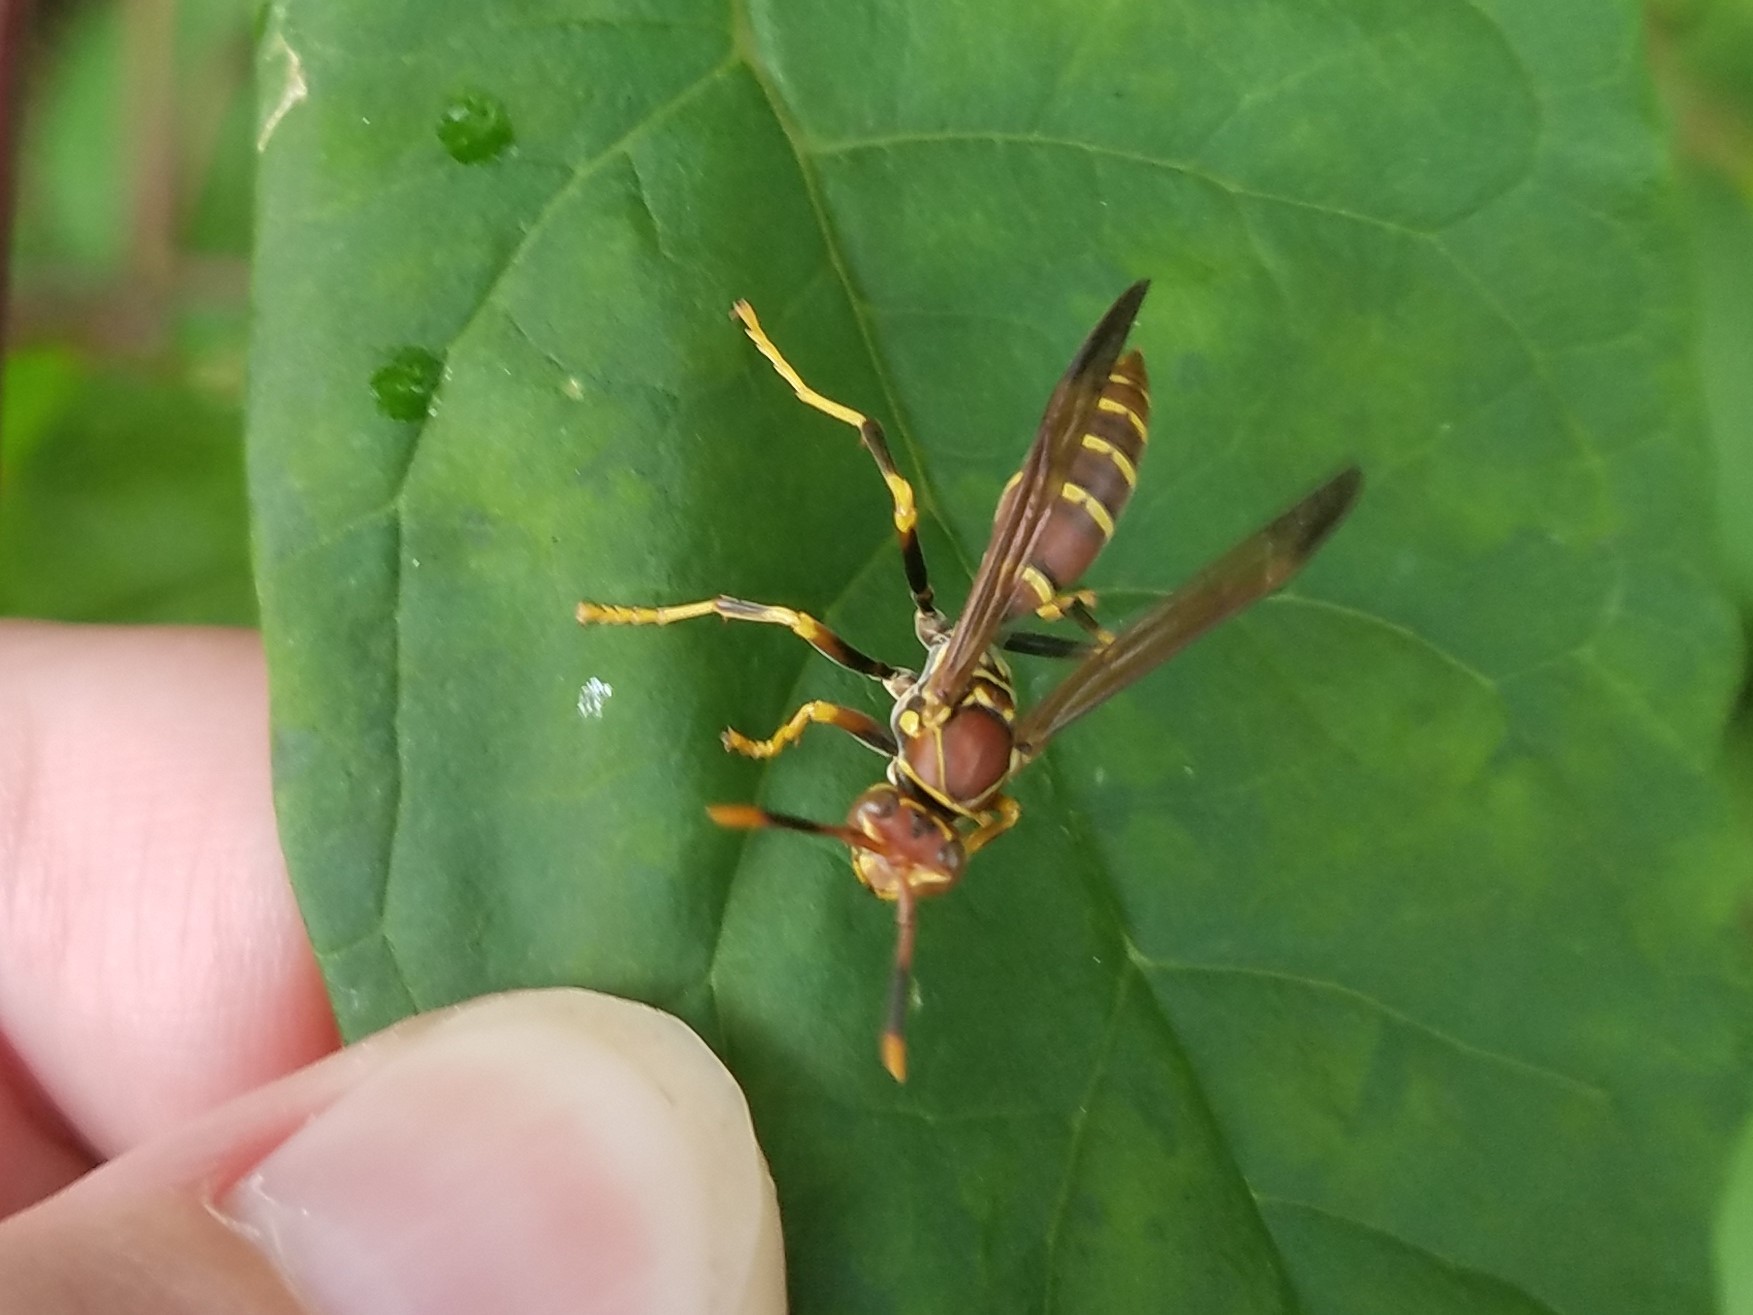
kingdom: Animalia
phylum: Arthropoda
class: Insecta
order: Hymenoptera
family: Eumenidae
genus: Polistes
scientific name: Polistes exclamans
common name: Paper wasp
